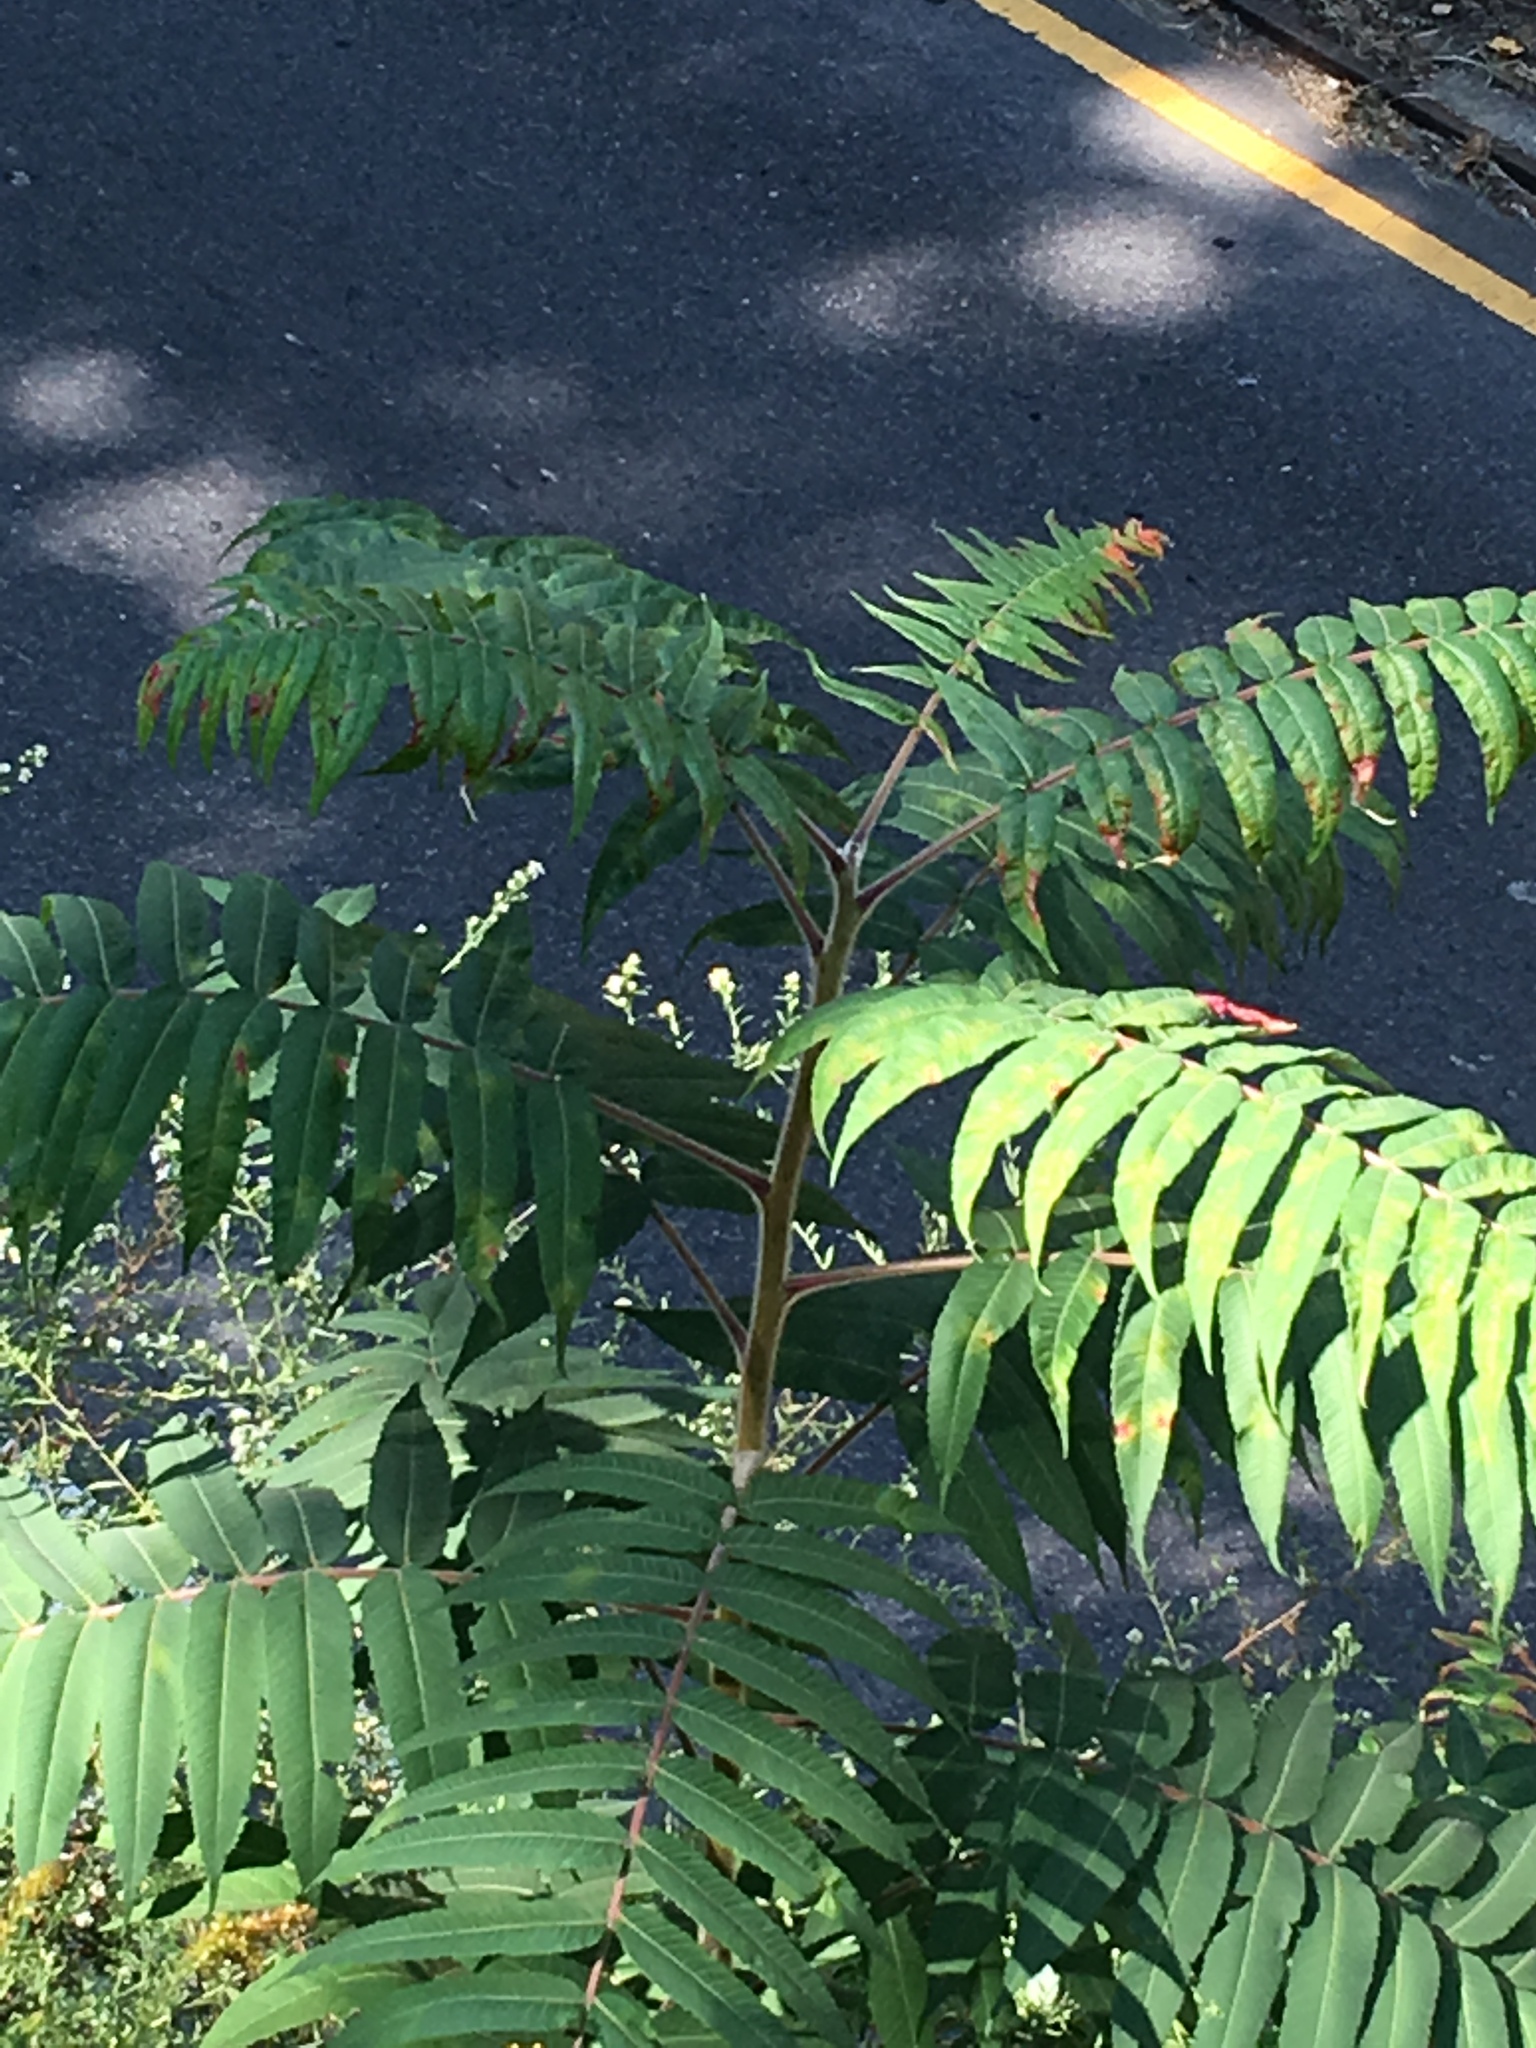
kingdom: Plantae
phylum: Tracheophyta
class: Magnoliopsida
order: Sapindales
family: Anacardiaceae
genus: Rhus
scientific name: Rhus typhina
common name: Staghorn sumac
